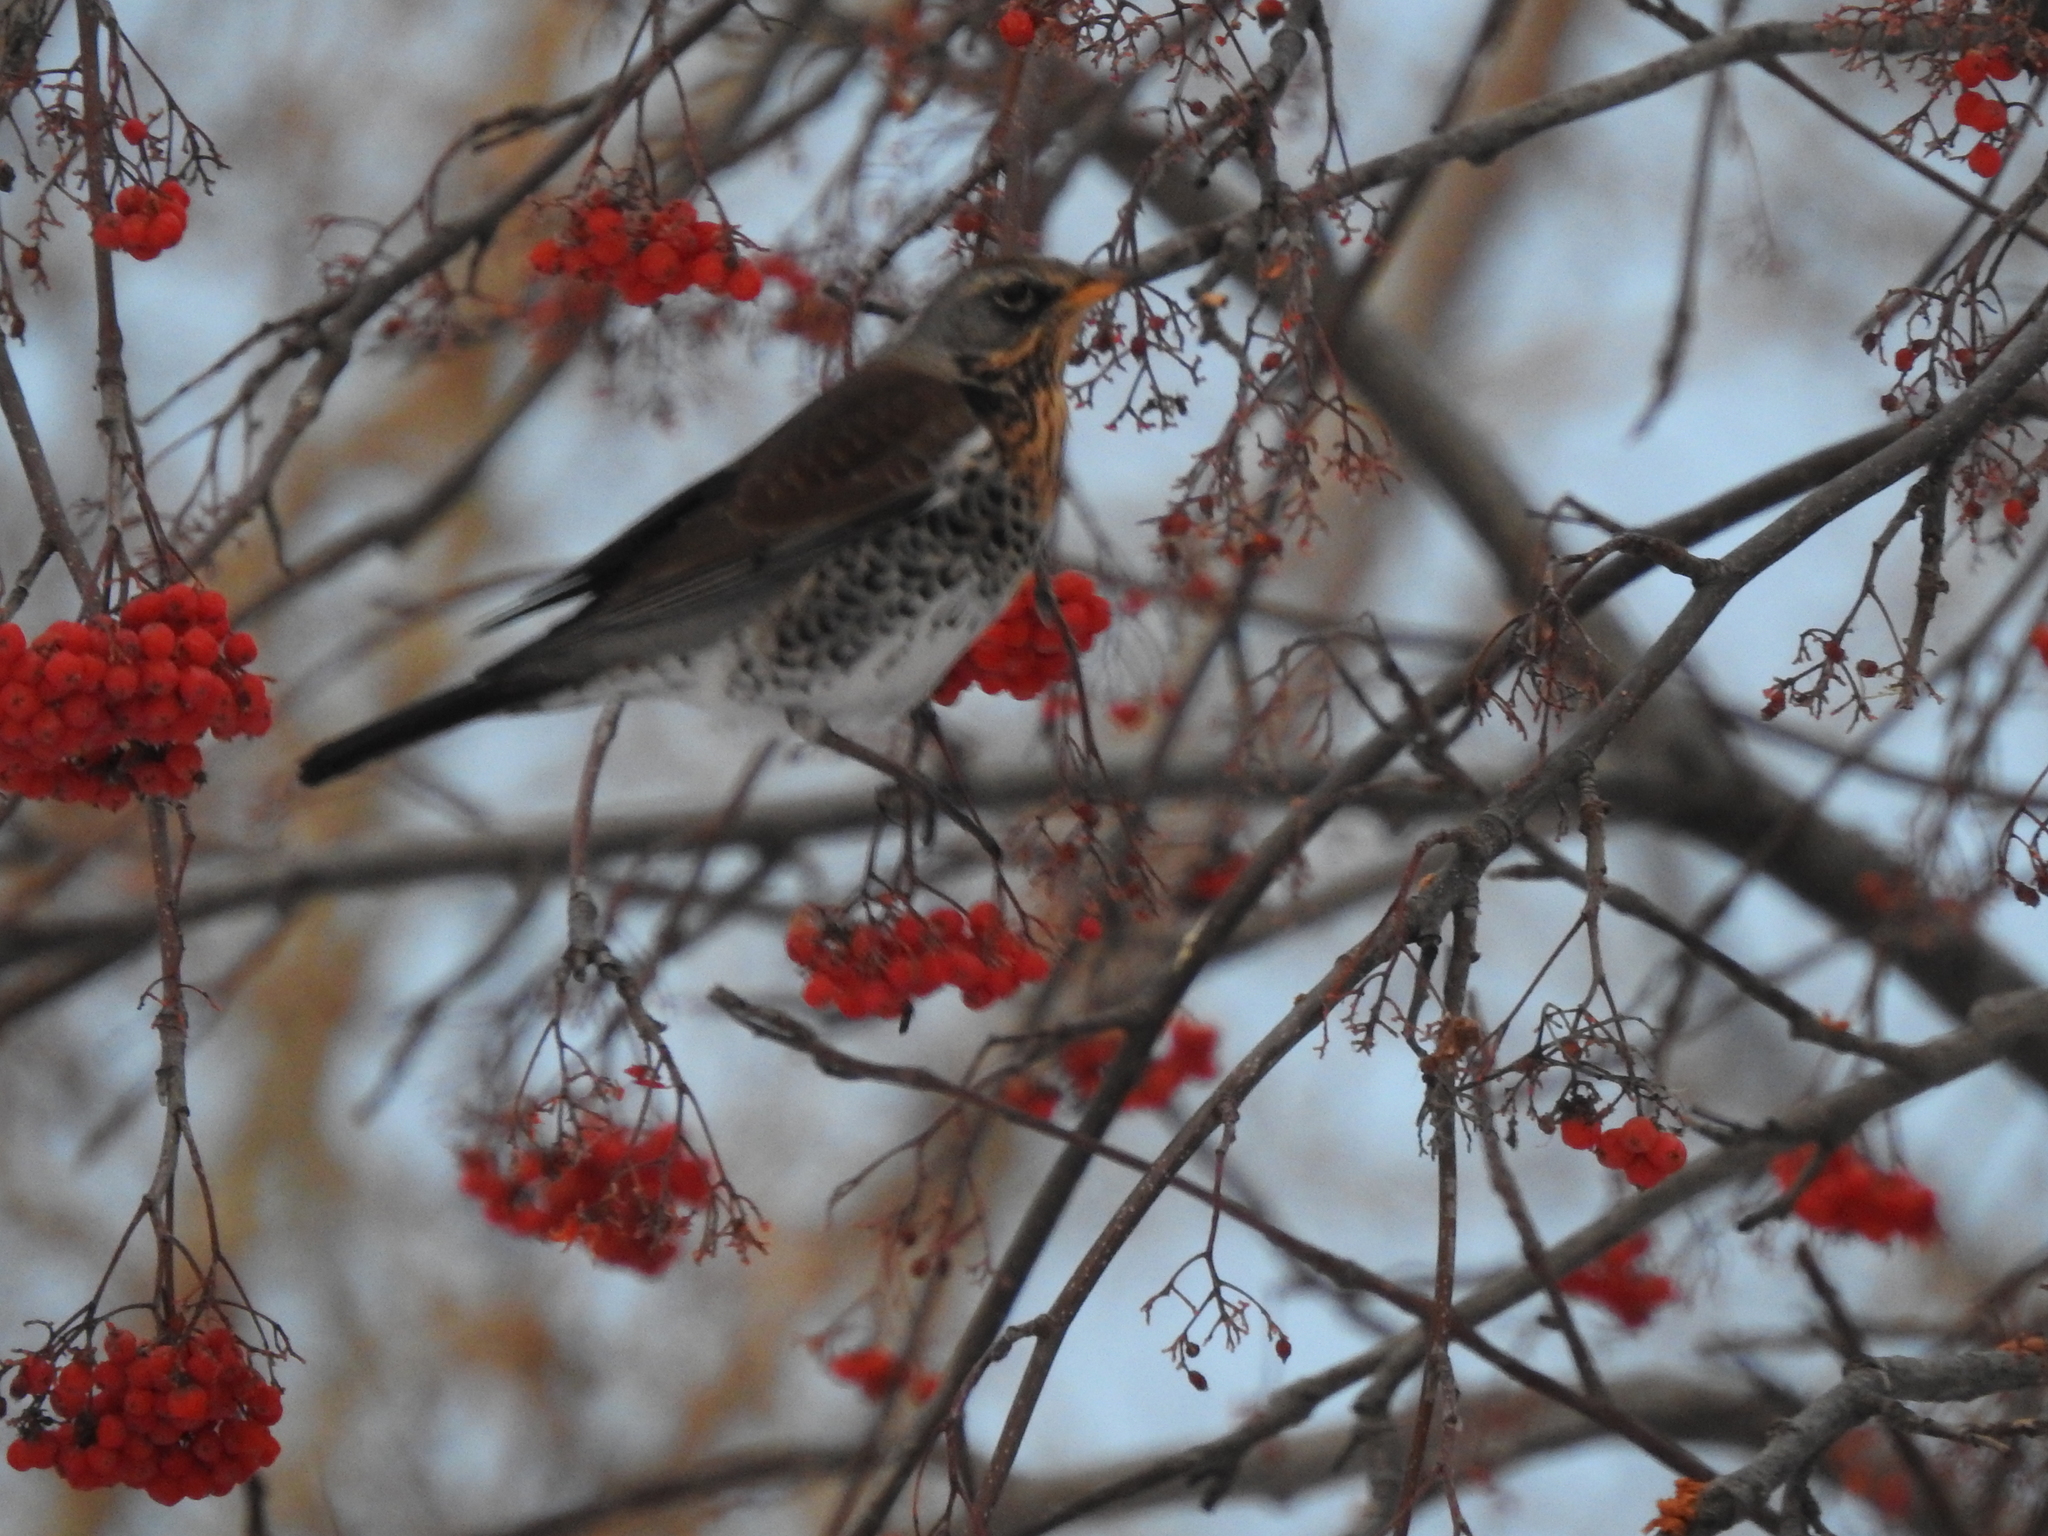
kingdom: Animalia
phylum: Chordata
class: Aves
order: Passeriformes
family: Turdidae
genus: Turdus
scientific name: Turdus pilaris
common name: Fieldfare
